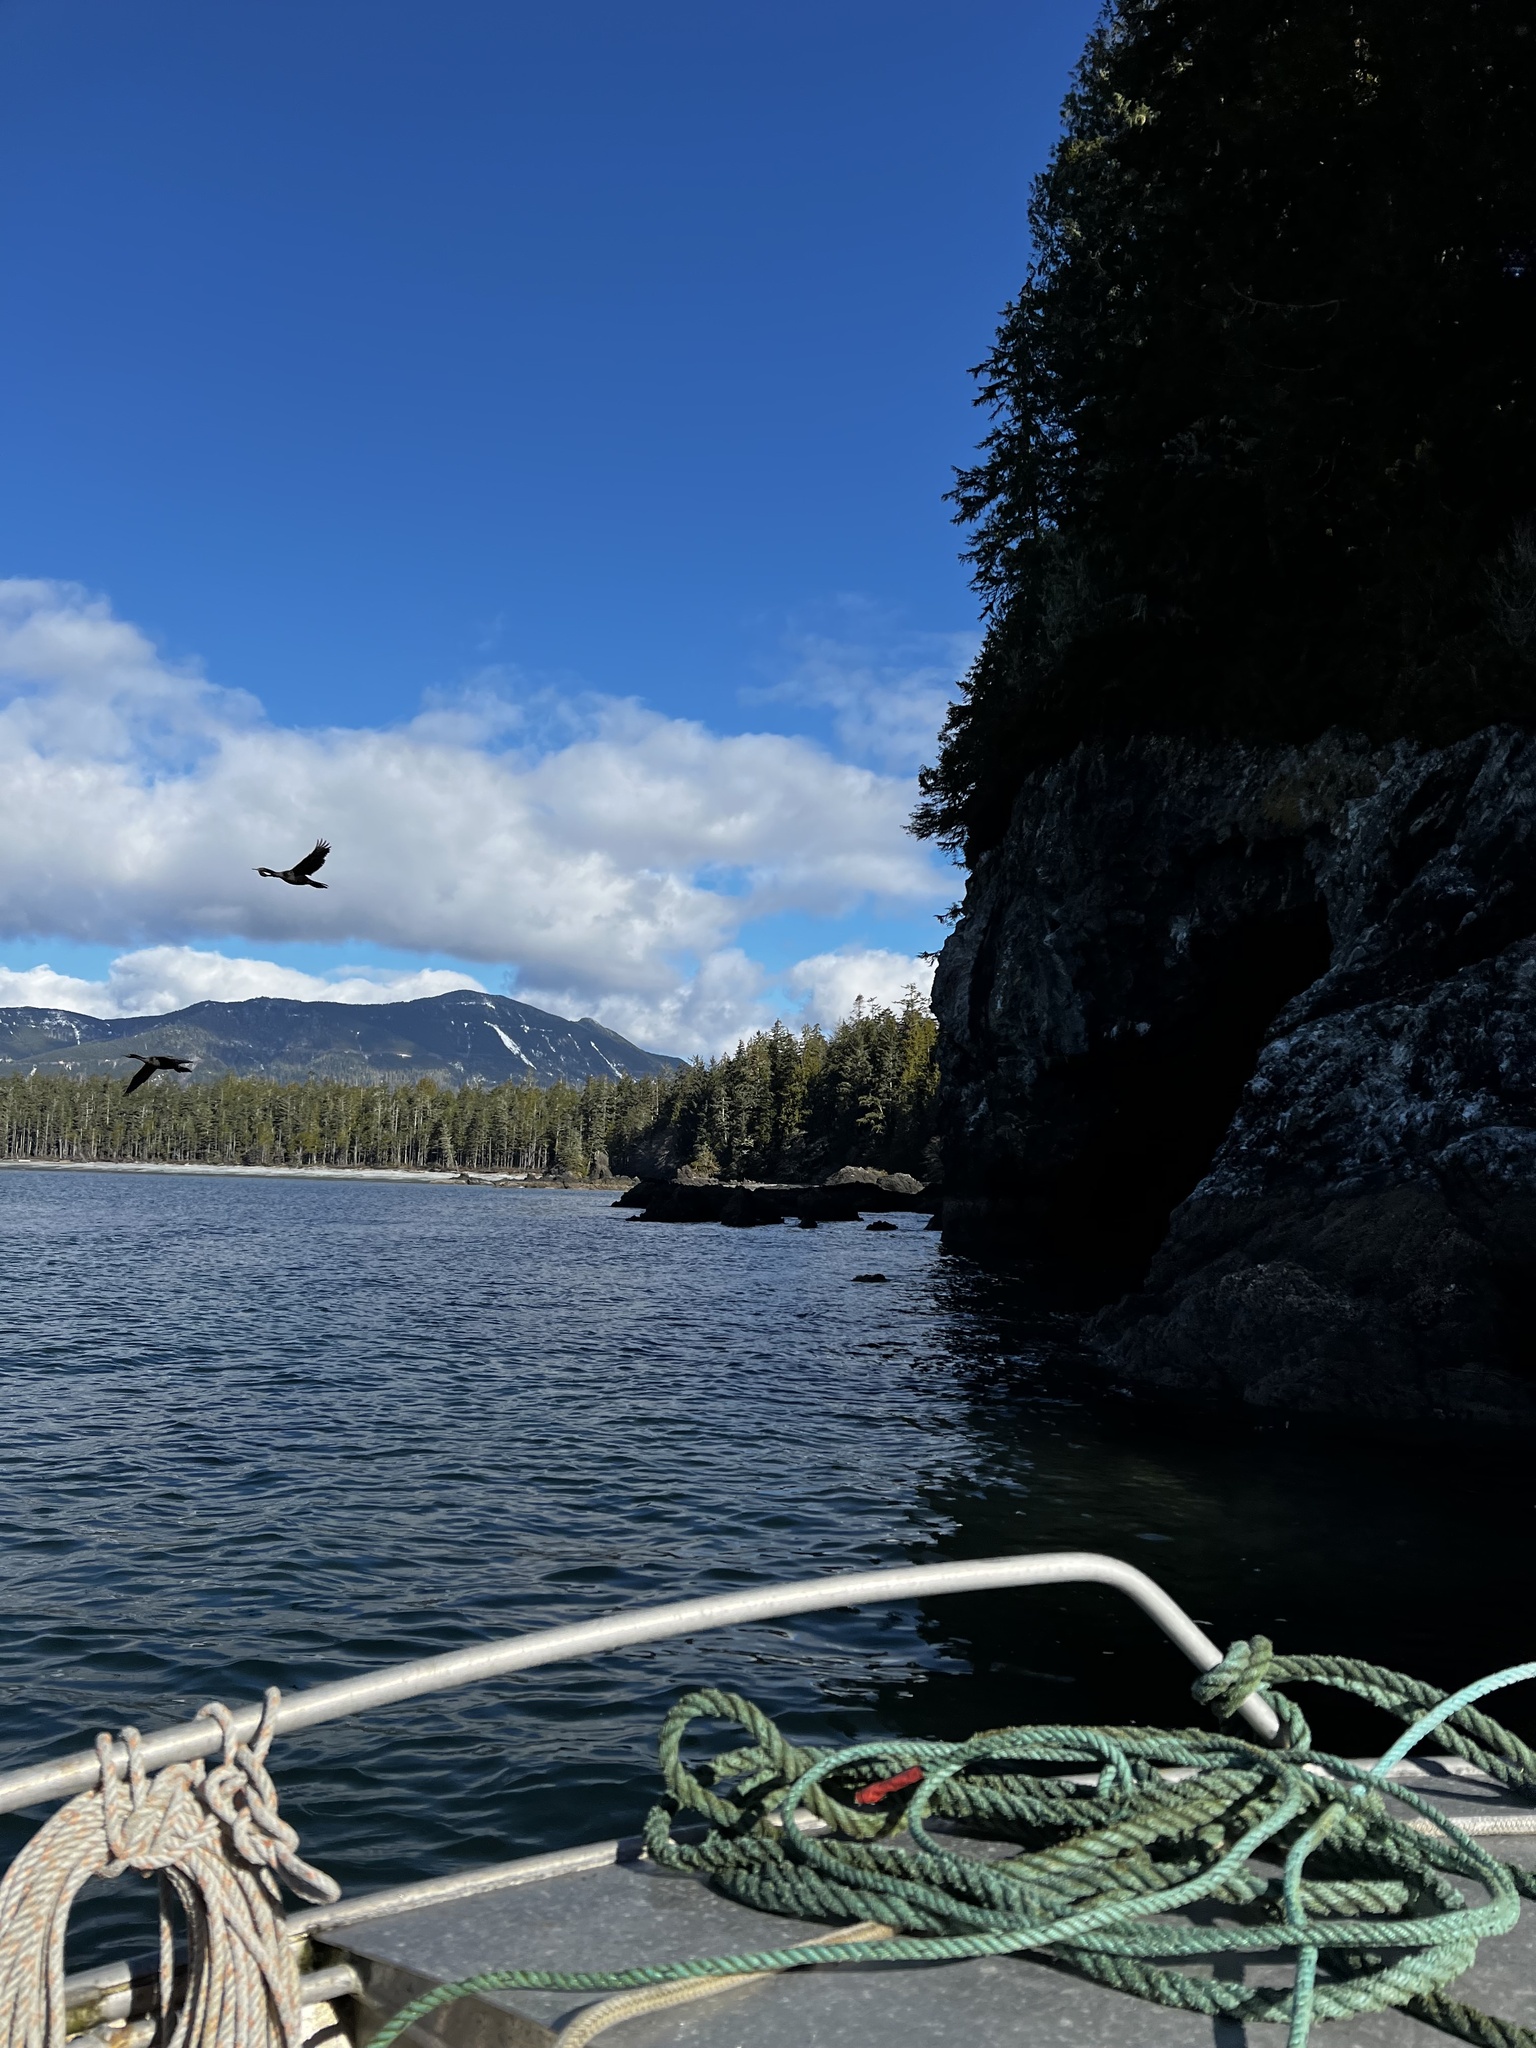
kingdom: Animalia
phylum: Chordata
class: Aves
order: Suliformes
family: Phalacrocoracidae
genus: Phalacrocorax
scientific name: Phalacrocorax pelagicus
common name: Pelagic cormorant
